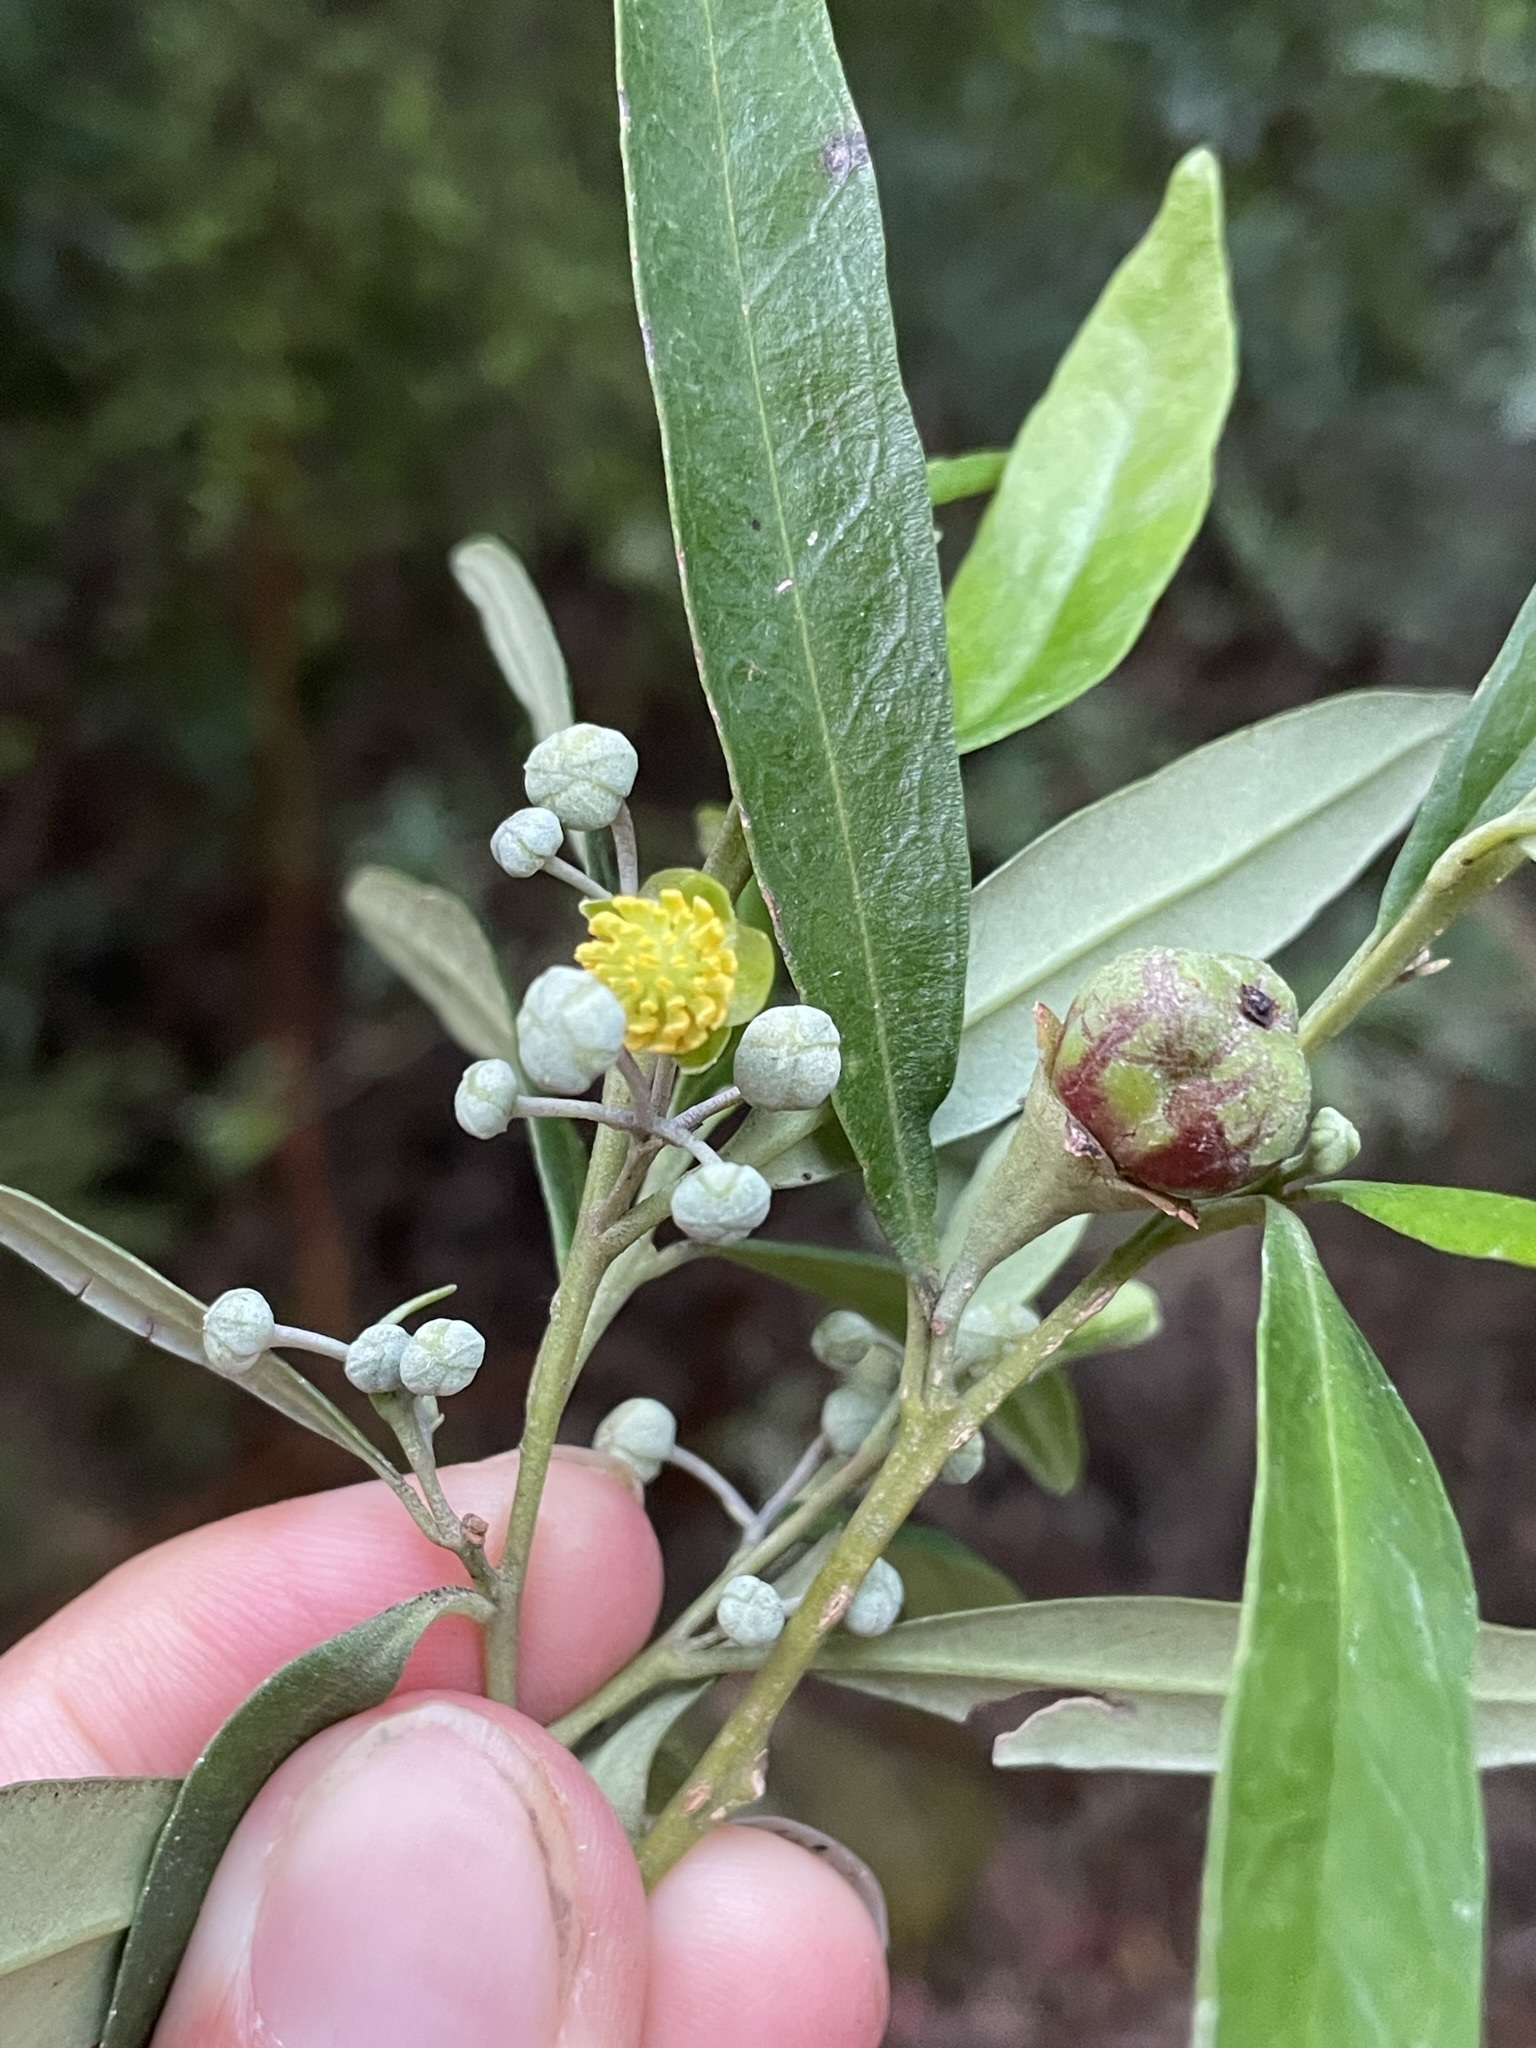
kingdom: Plantae
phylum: Tracheophyta
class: Magnoliopsida
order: Malpighiales
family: Euphorbiaceae
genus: Beyeria
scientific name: Beyeria viscosa
